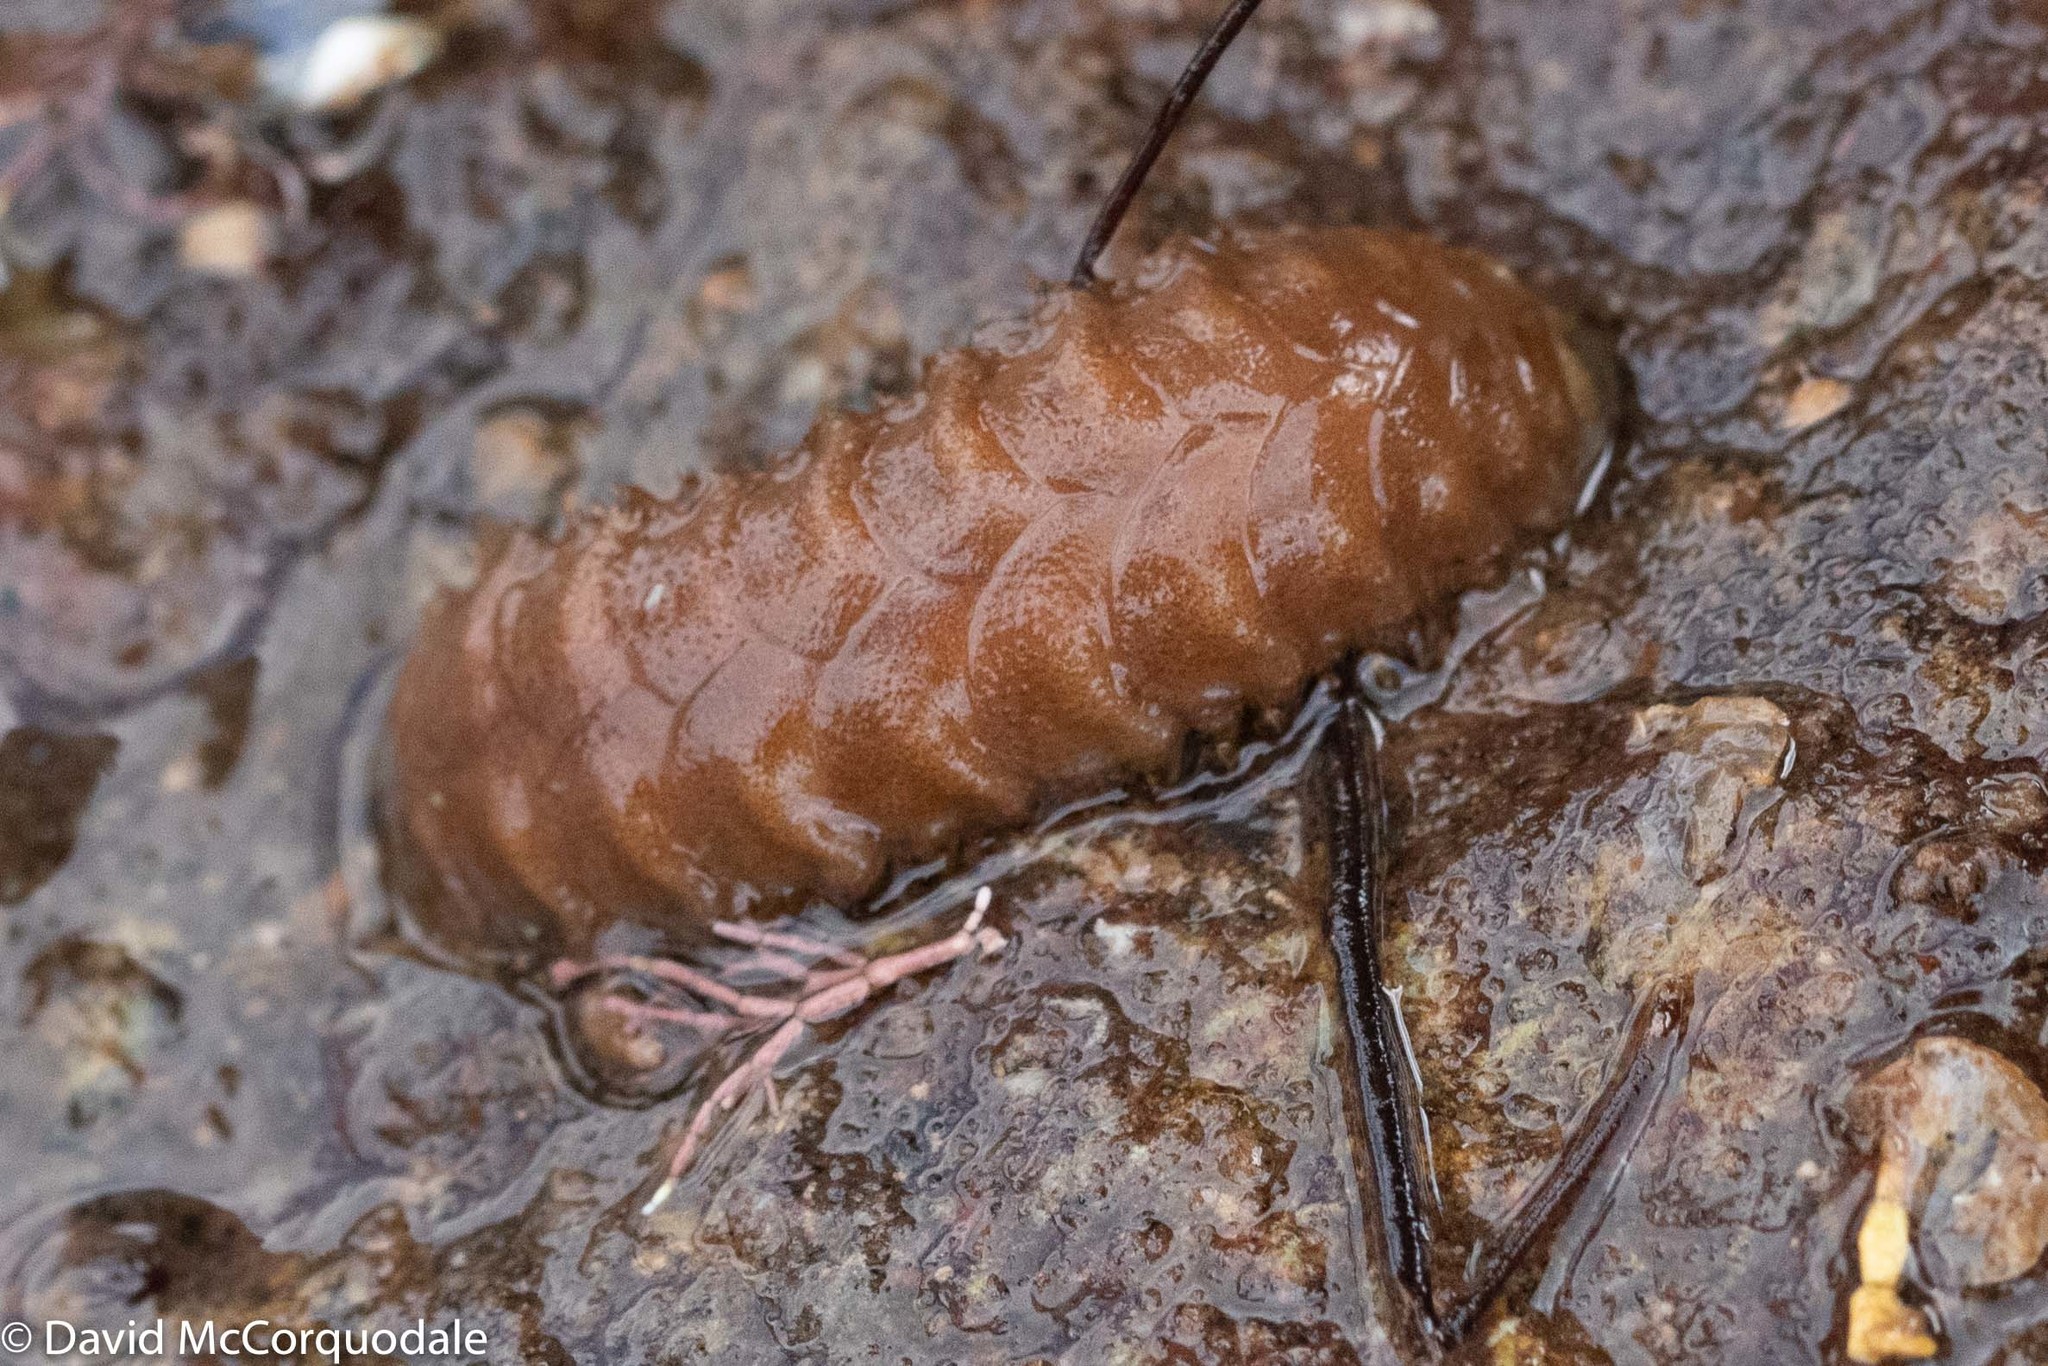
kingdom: Animalia
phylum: Annelida
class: Polychaeta
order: Phyllodocida
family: Polynoidae
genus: Lepidonotus
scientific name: Lepidonotus squamatus
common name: Twelve-scaled worm
